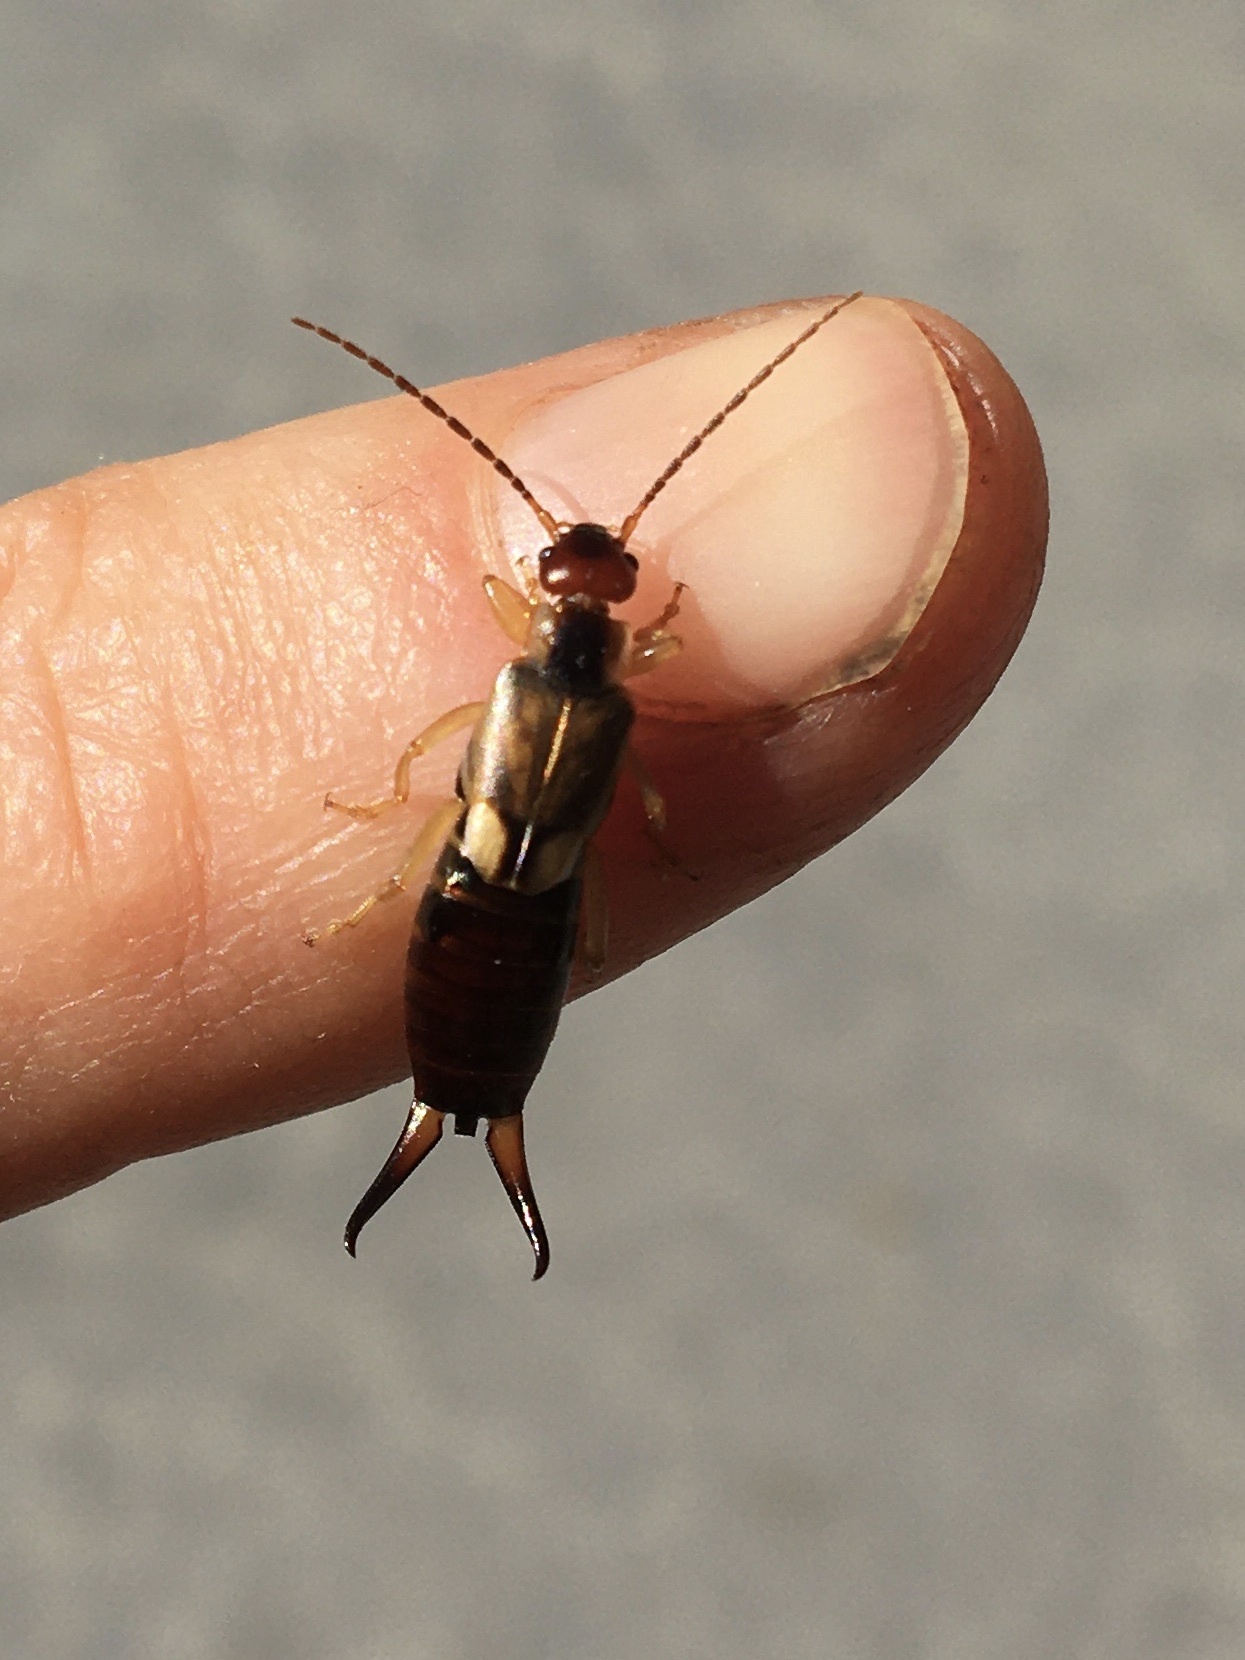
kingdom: Animalia
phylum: Arthropoda
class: Insecta
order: Dermaptera
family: Forficulidae
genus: Forficula
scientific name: Forficula
